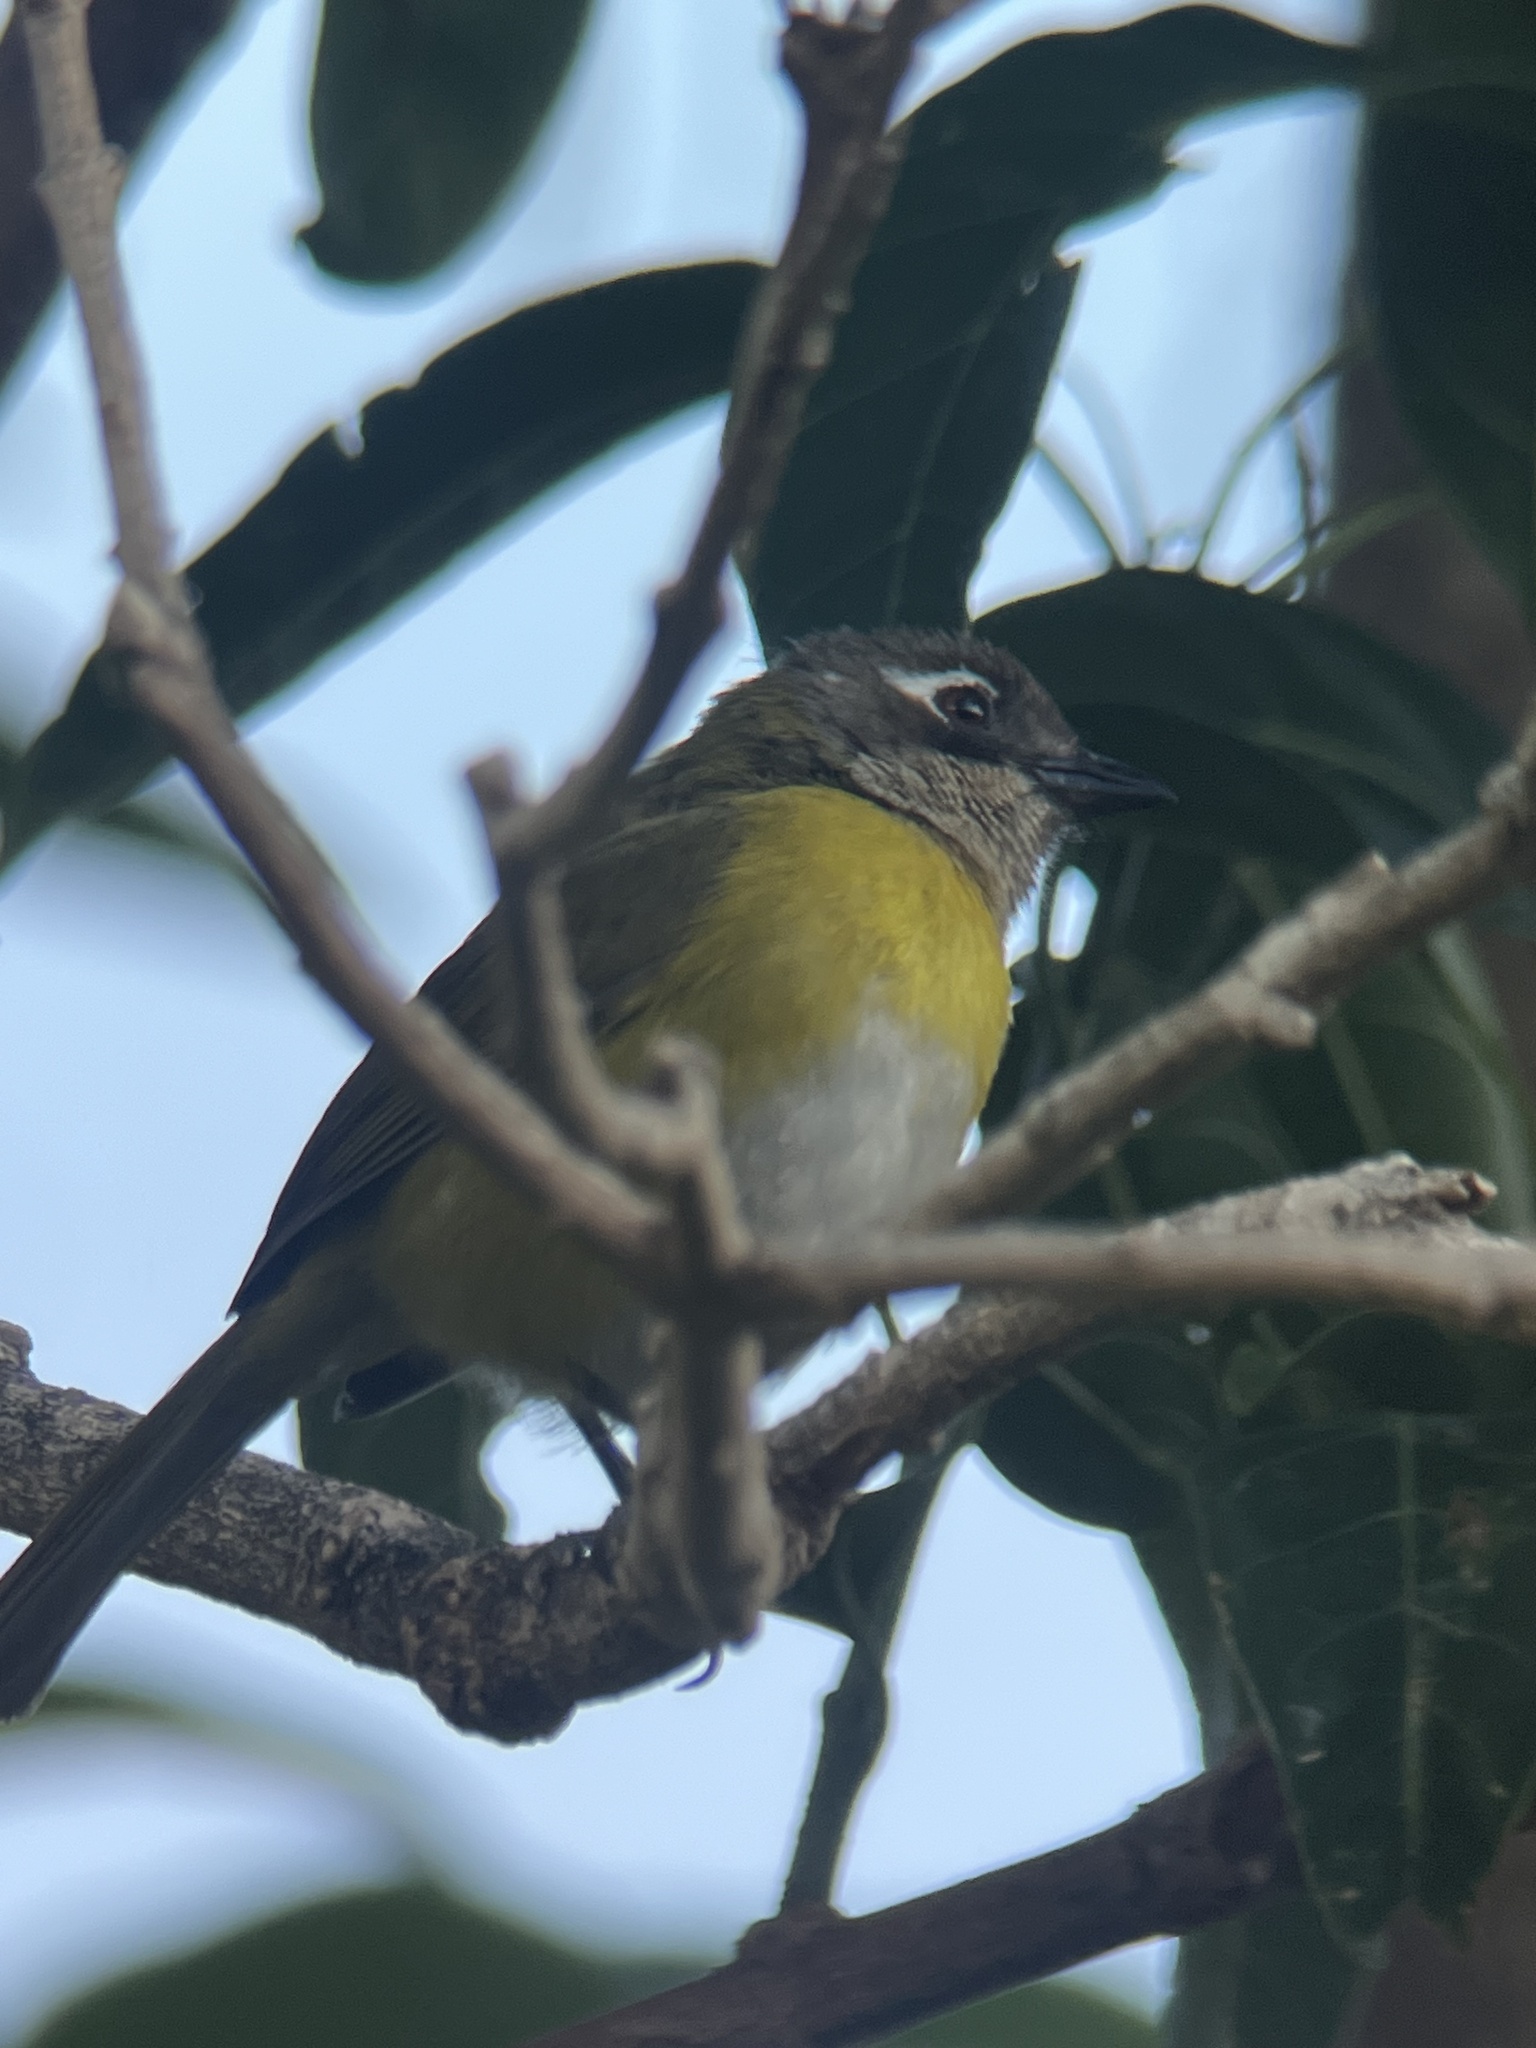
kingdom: Animalia
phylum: Chordata
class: Aves
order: Passeriformes
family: Passerellidae
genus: Chlorospingus
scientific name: Chlorospingus flavopectus
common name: Common chlorospingus
